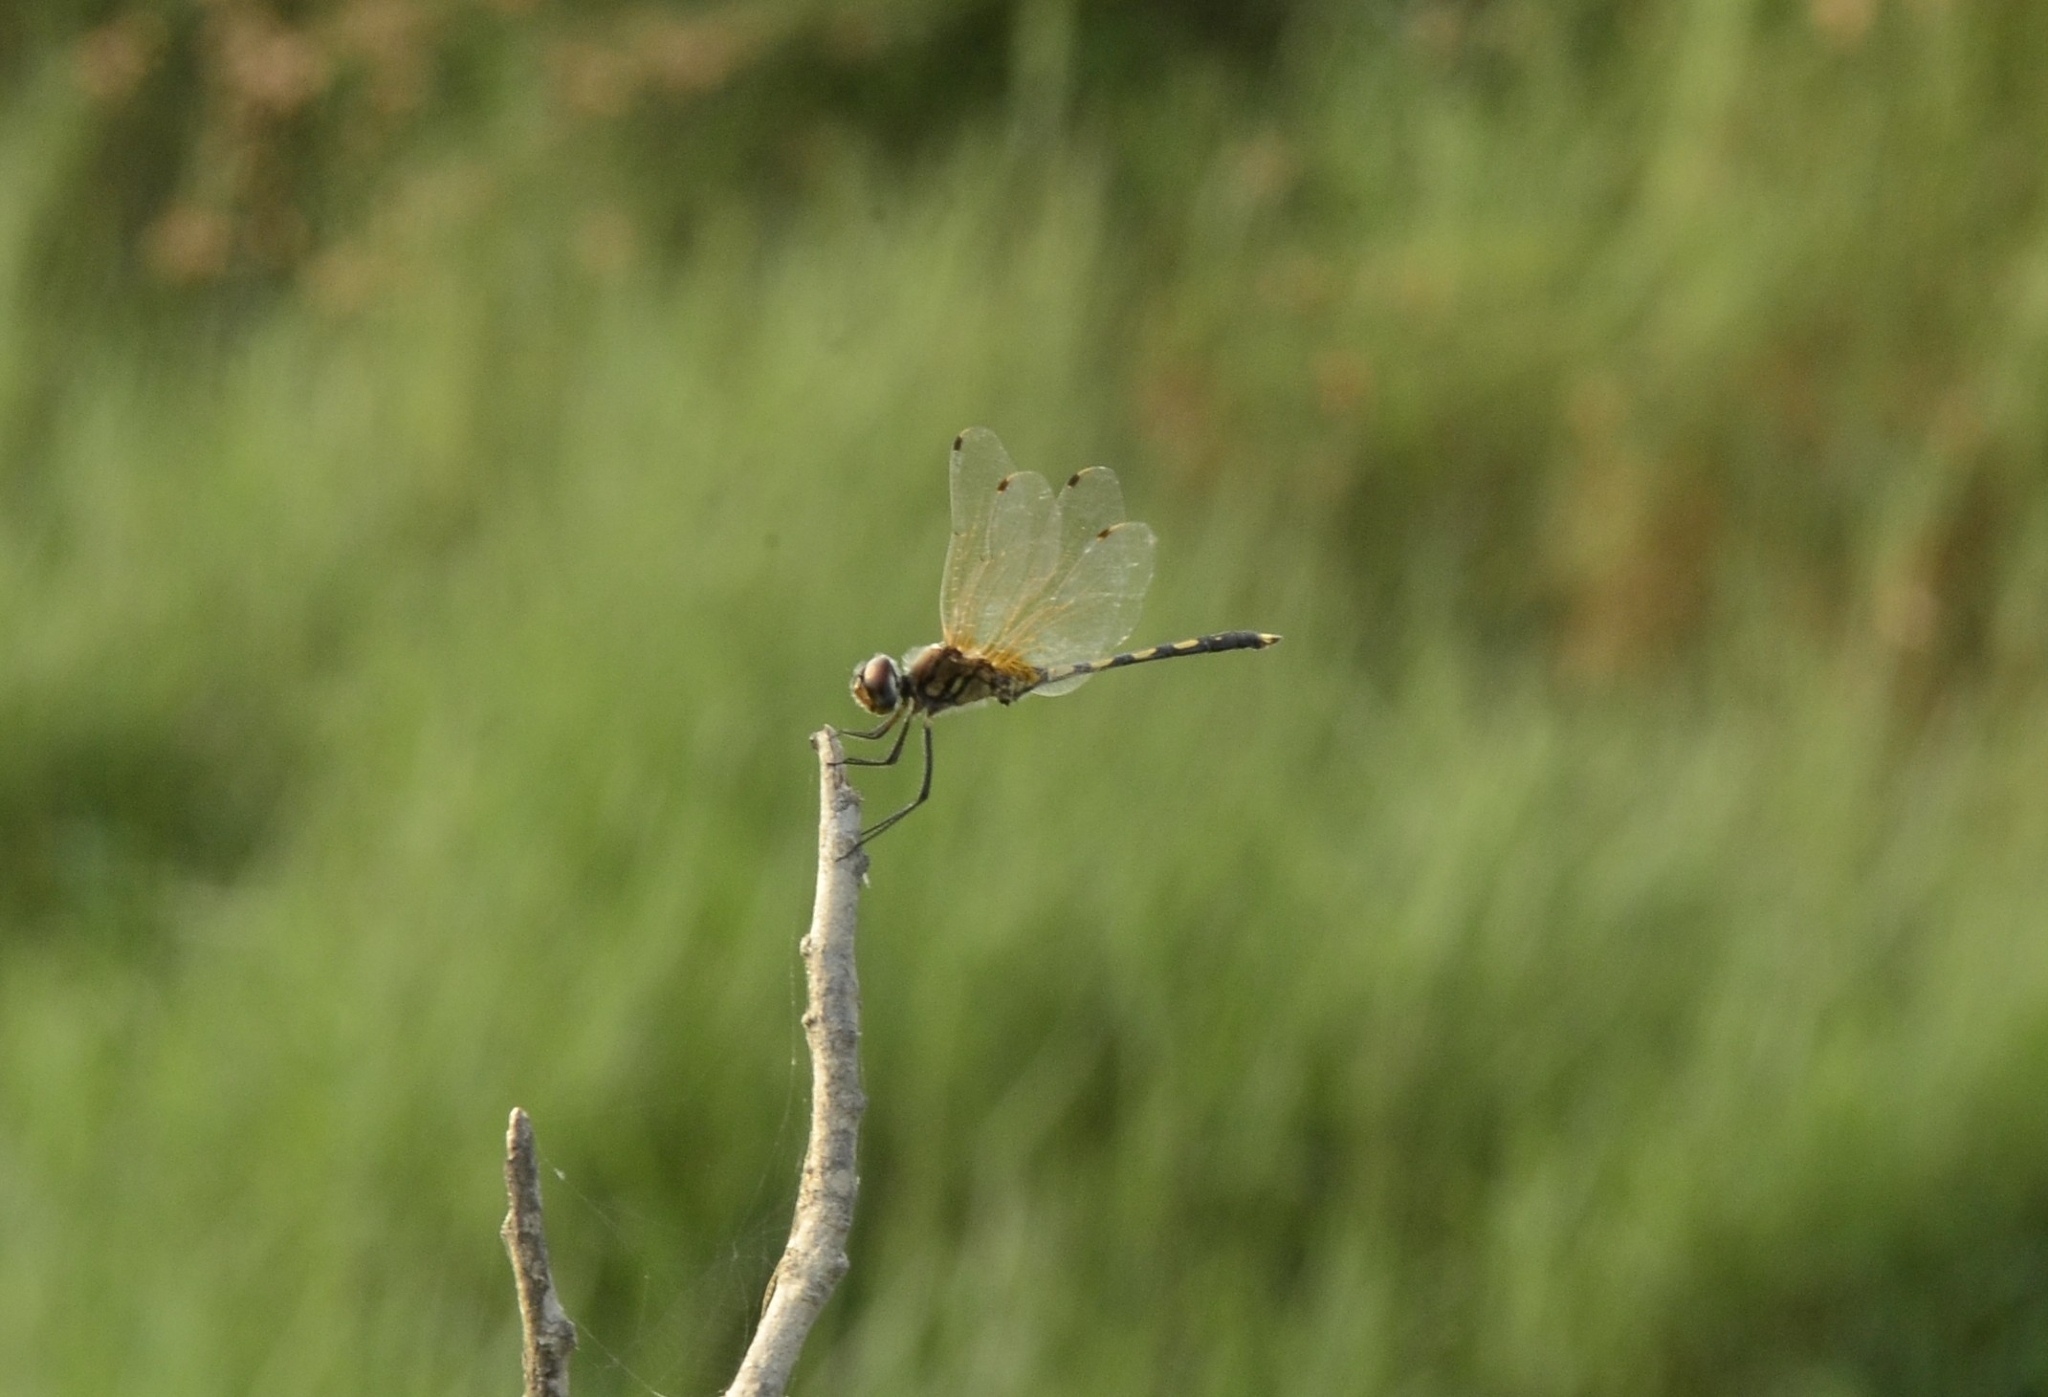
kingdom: Animalia
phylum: Arthropoda
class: Insecta
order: Odonata
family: Libellulidae
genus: Trithemis
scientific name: Trithemis pallidinervis
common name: Dancing dropwing
